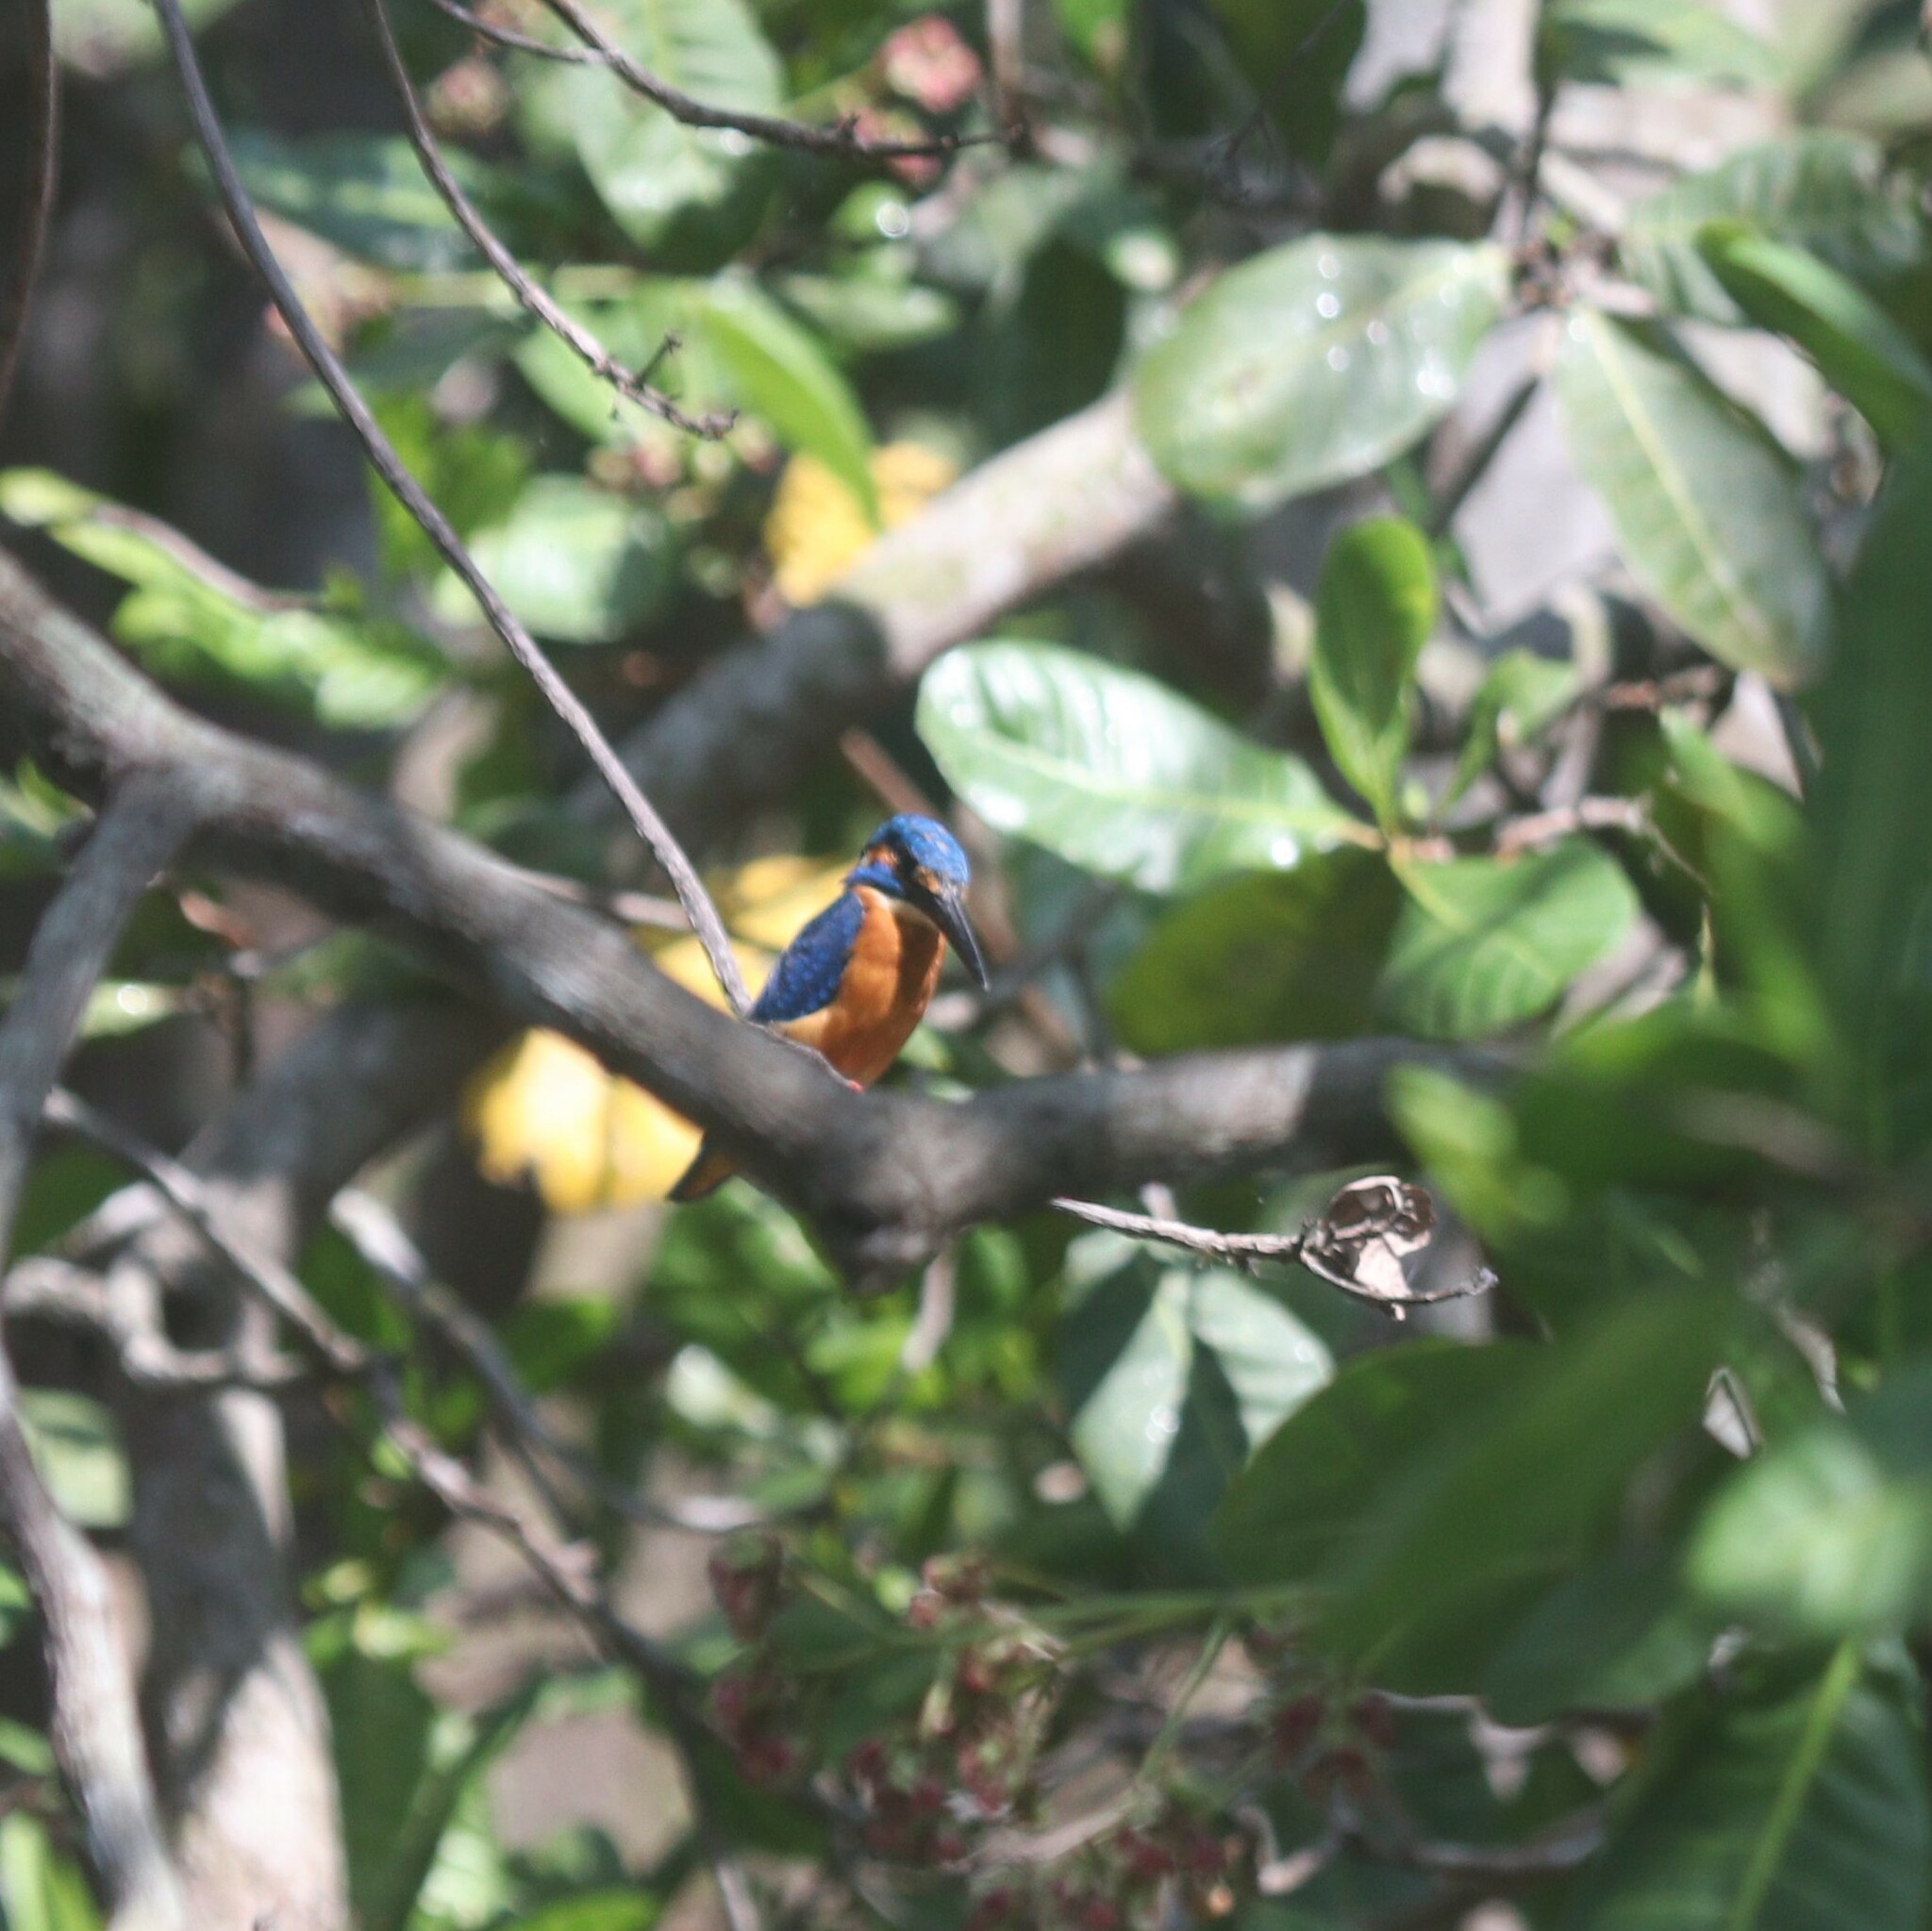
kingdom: Animalia
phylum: Chordata
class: Aves
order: Coraciiformes
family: Alcedinidae
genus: Alcedo
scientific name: Alcedo atthis
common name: Common kingfisher
